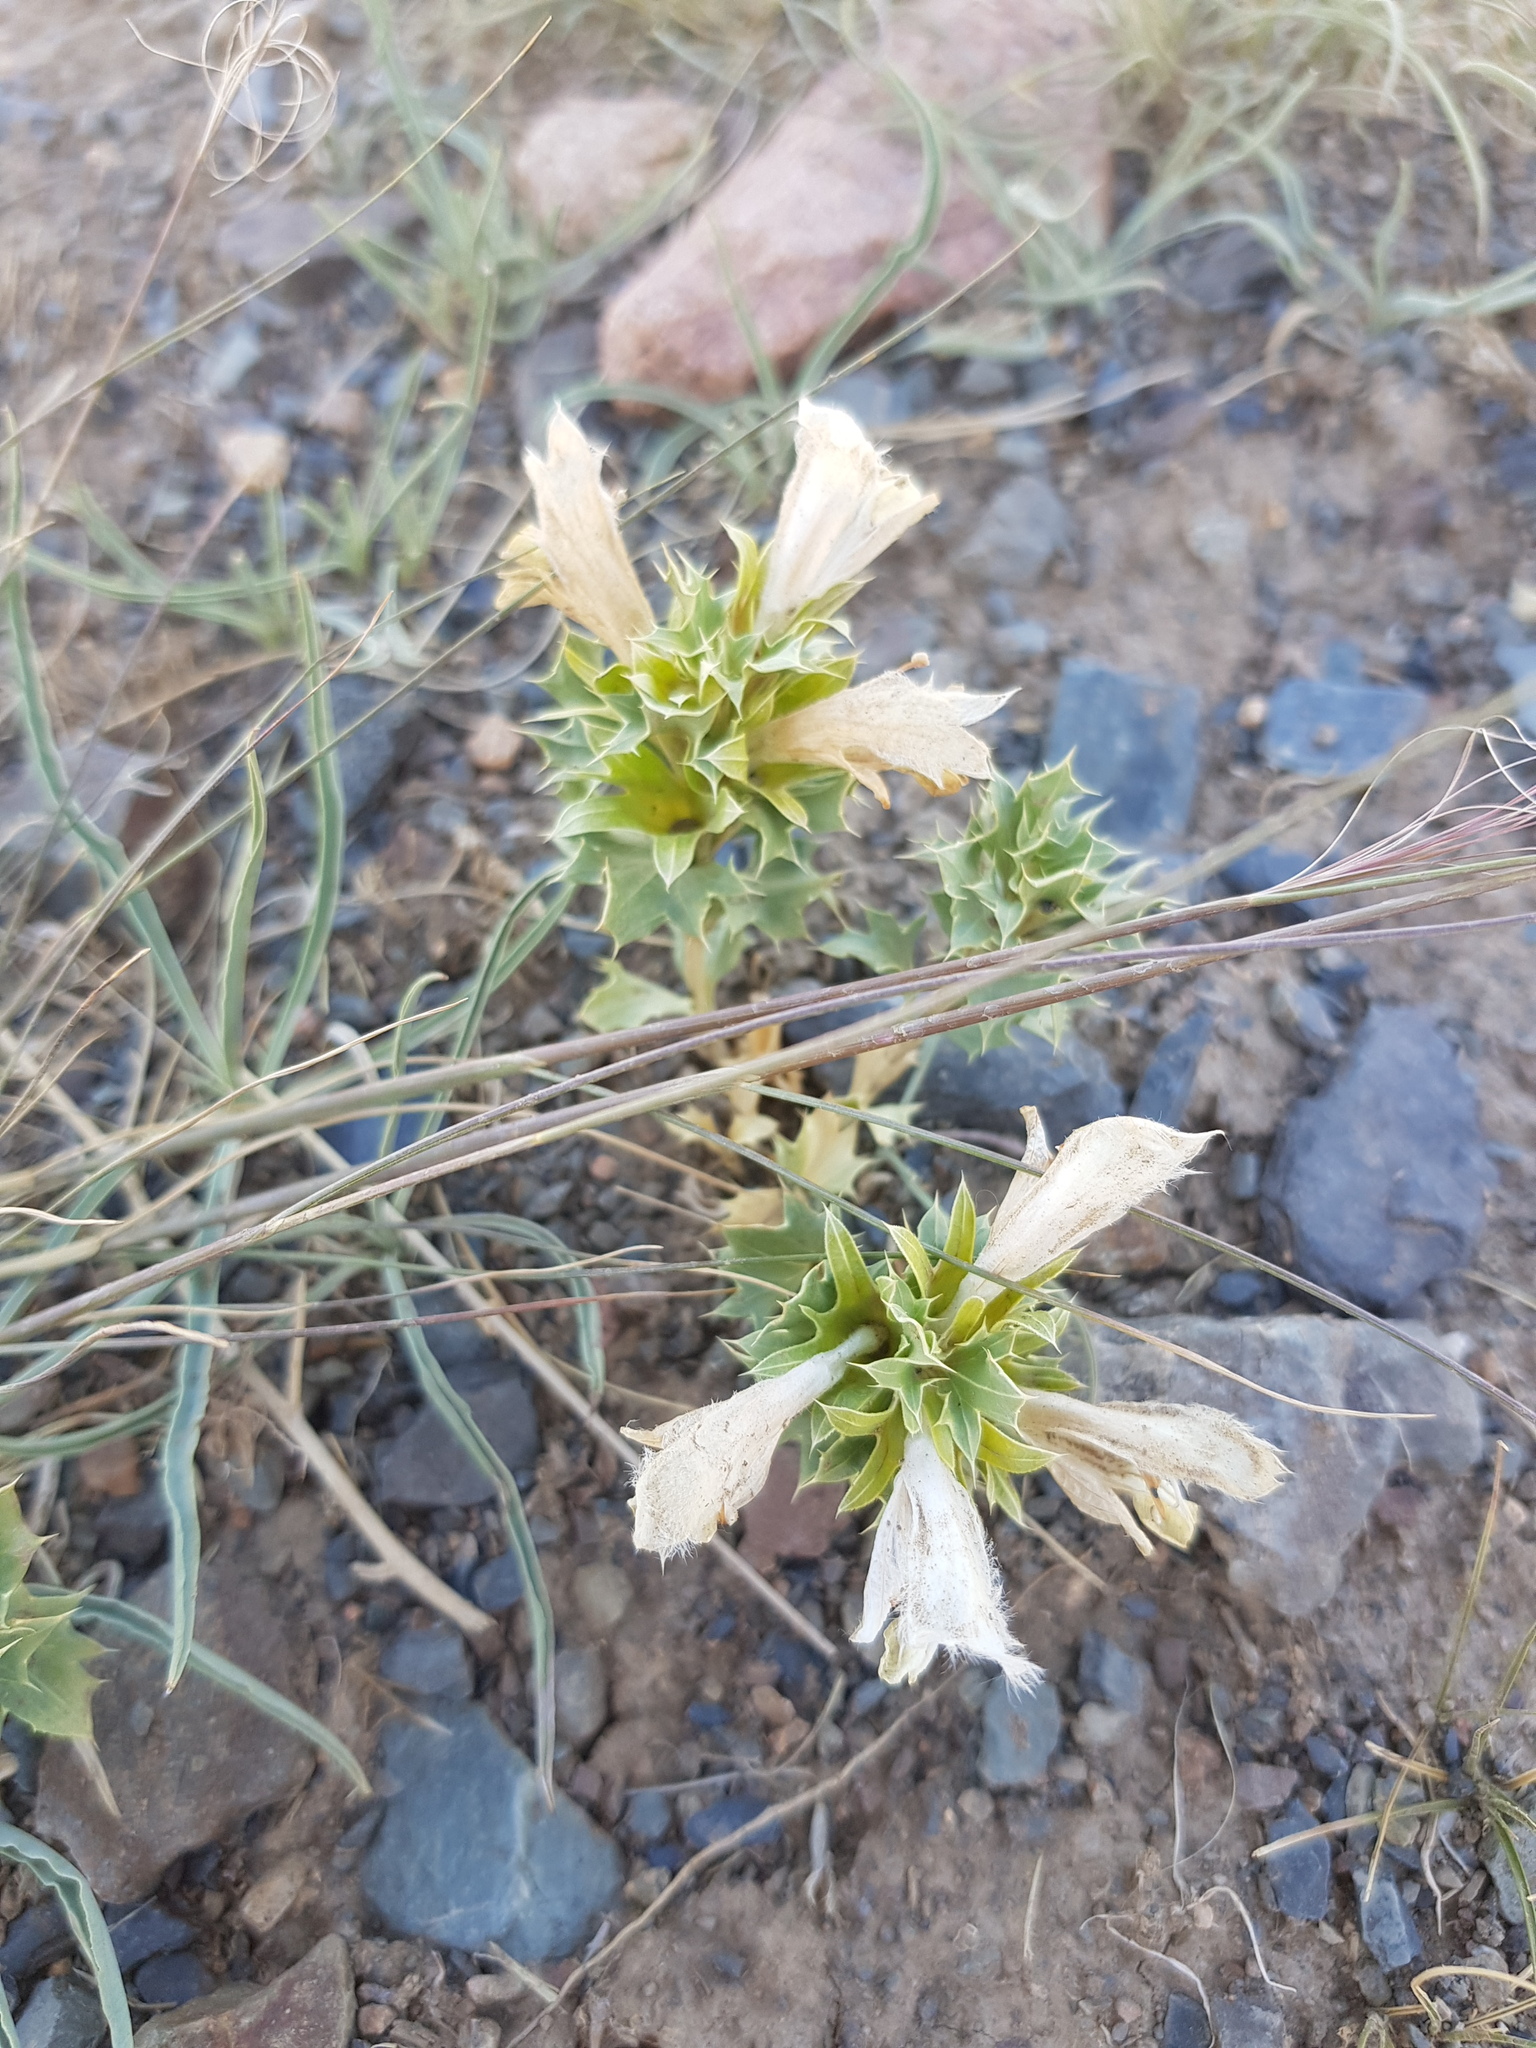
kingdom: Plantae
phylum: Tracheophyta
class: Magnoliopsida
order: Lamiales
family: Lamiaceae
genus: Lagochilus
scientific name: Lagochilus ilicifolius
